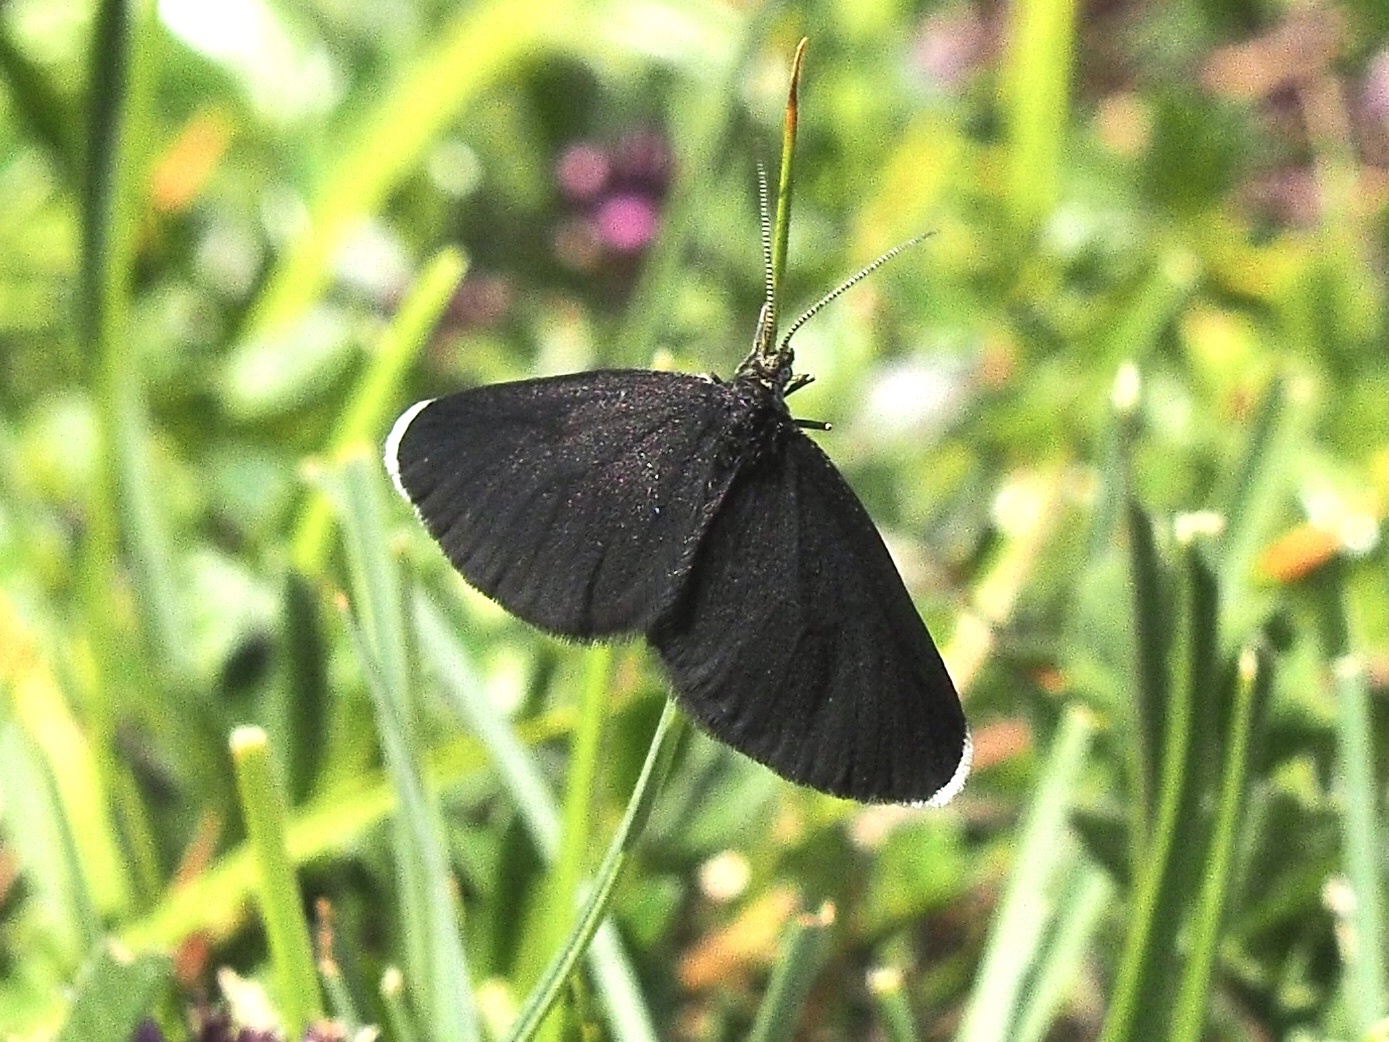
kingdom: Animalia
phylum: Arthropoda
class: Insecta
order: Lepidoptera
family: Geometridae
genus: Odezia
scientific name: Odezia atrata
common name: Chimney sweeper
